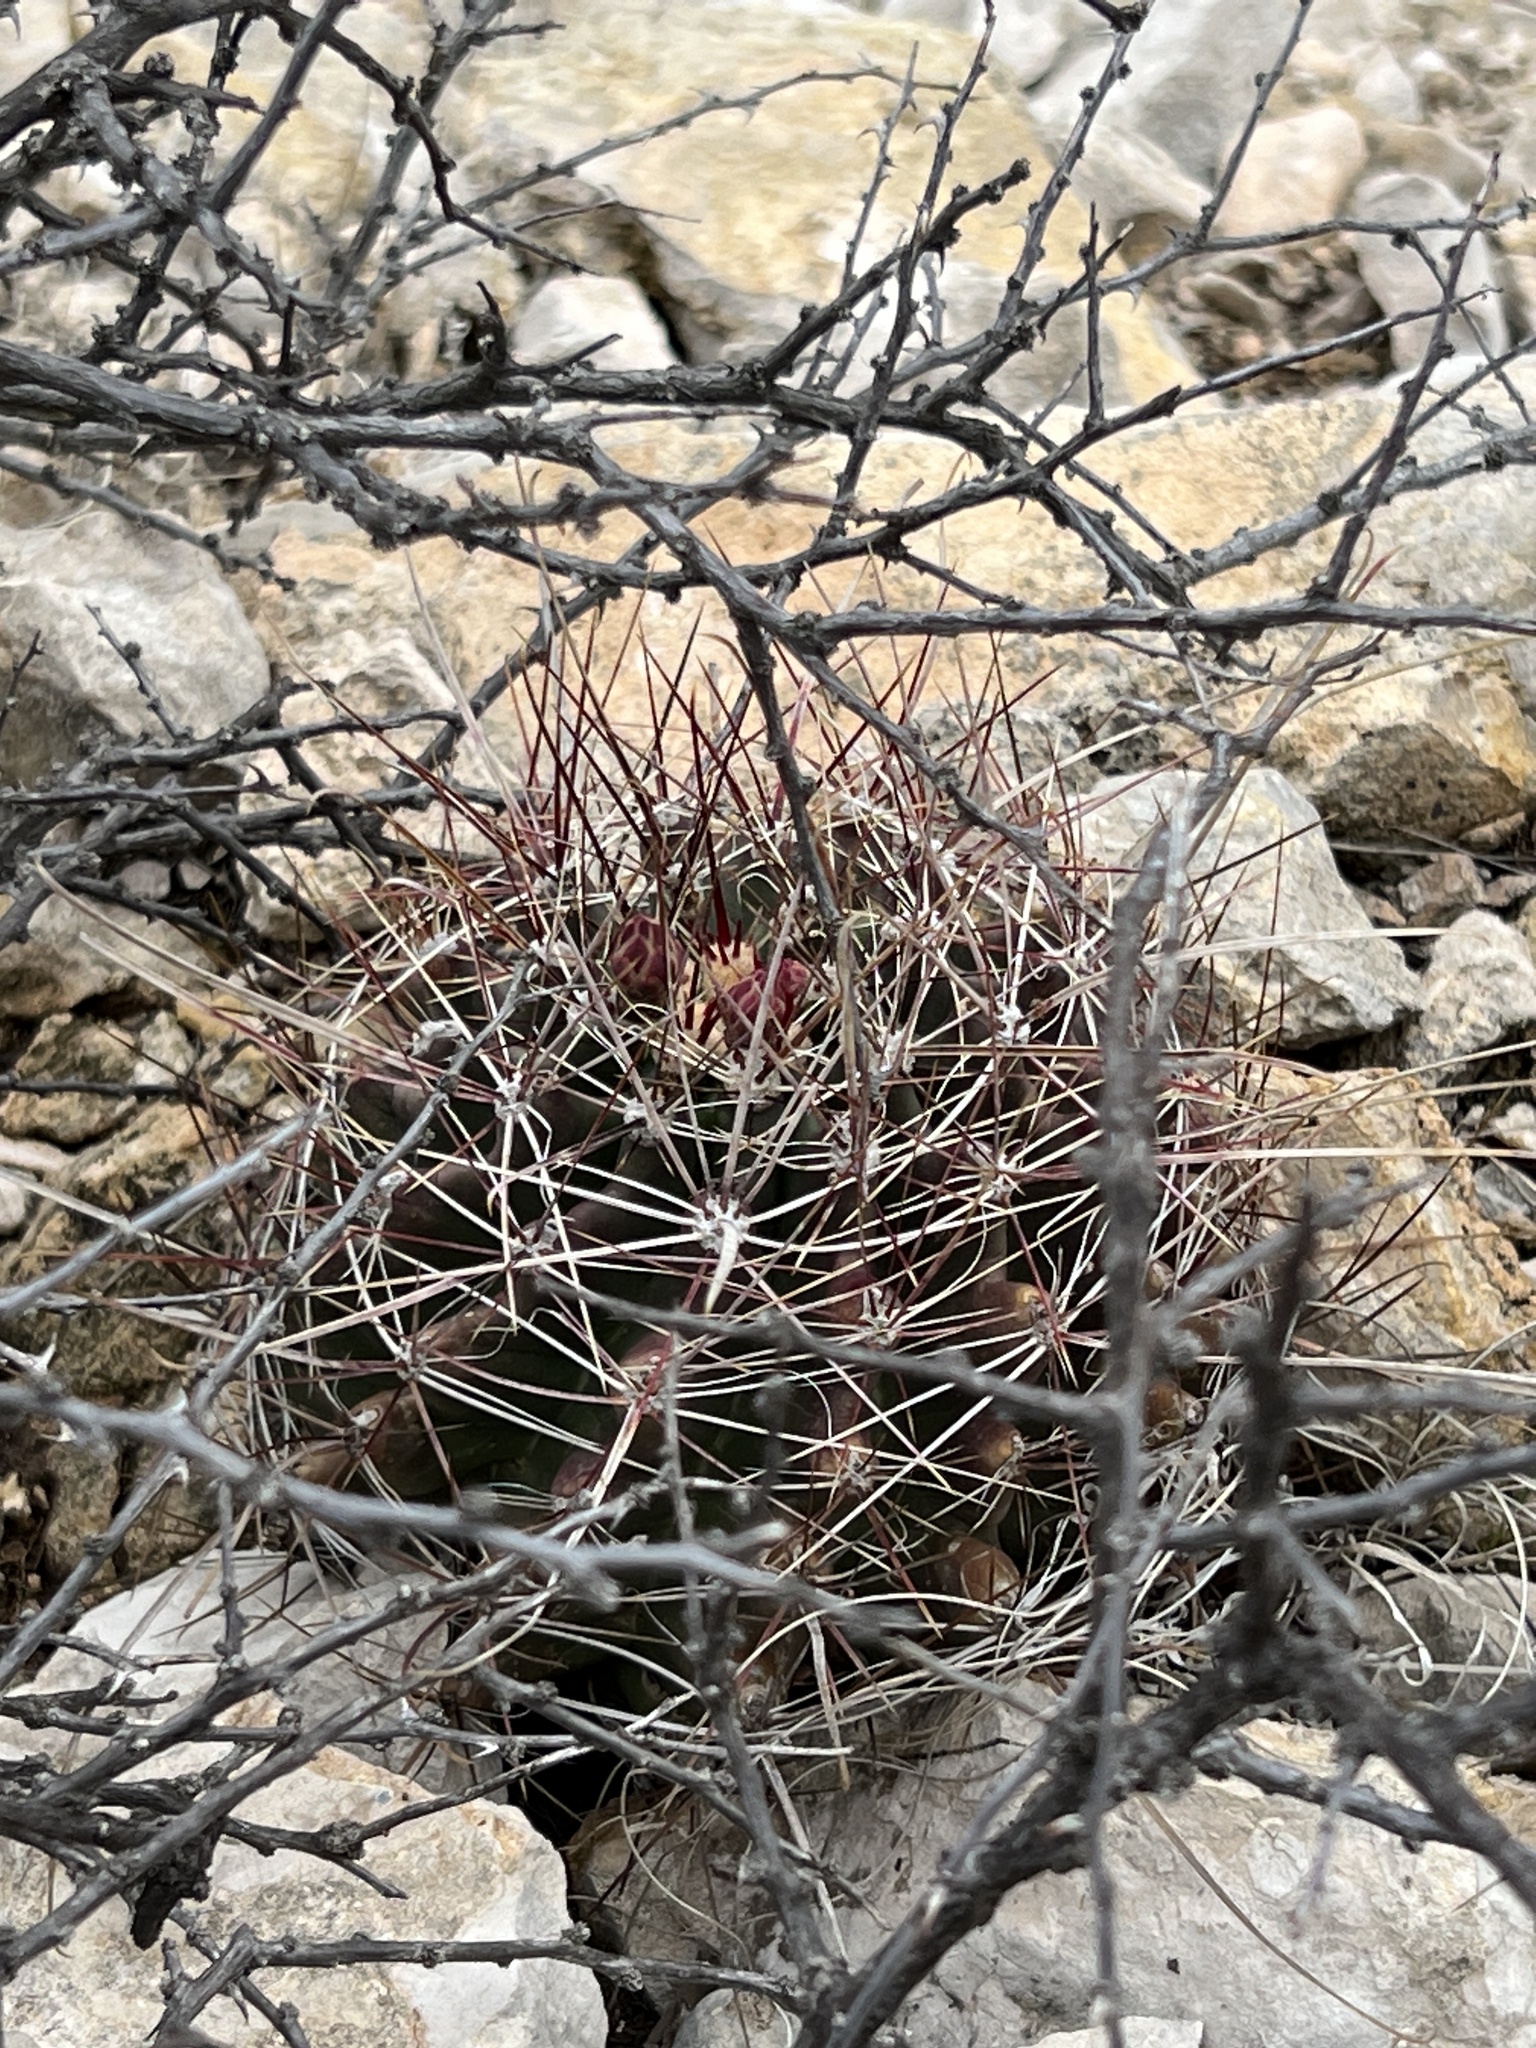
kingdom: Plantae
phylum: Tracheophyta
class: Magnoliopsida
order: Caryophyllales
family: Cactaceae
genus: Bisnaga
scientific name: Bisnaga hamatacantha
